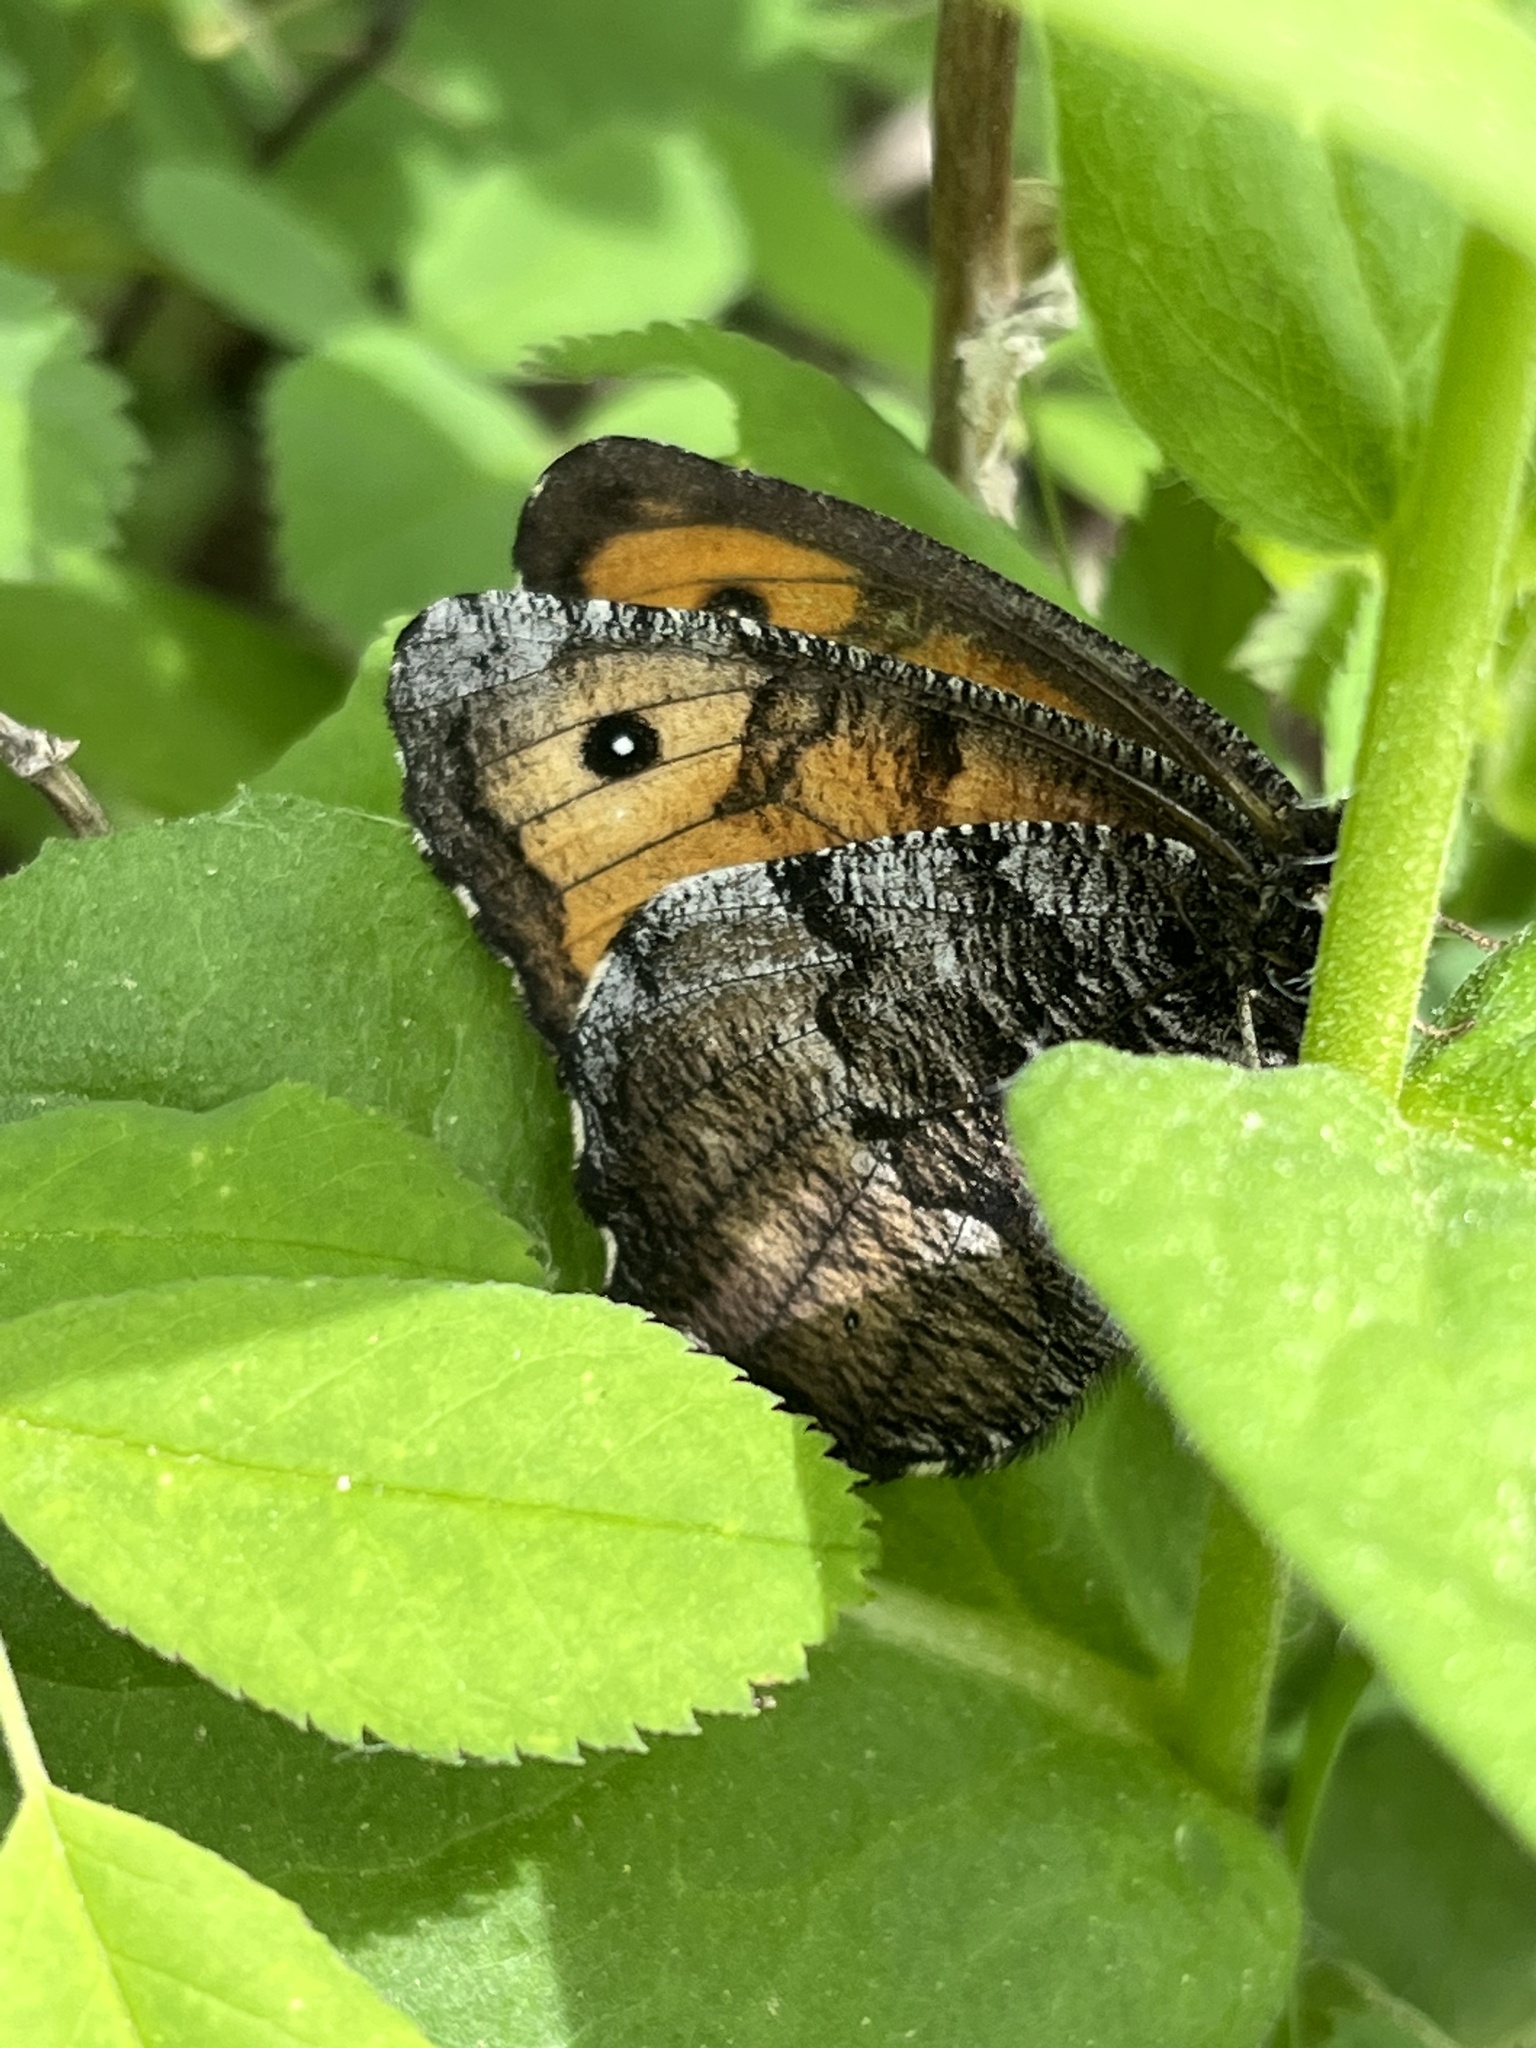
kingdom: Animalia
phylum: Arthropoda
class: Insecta
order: Lepidoptera
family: Nymphalidae
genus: Oeneis
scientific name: Oeneis macounii
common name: Macoun's arctic
